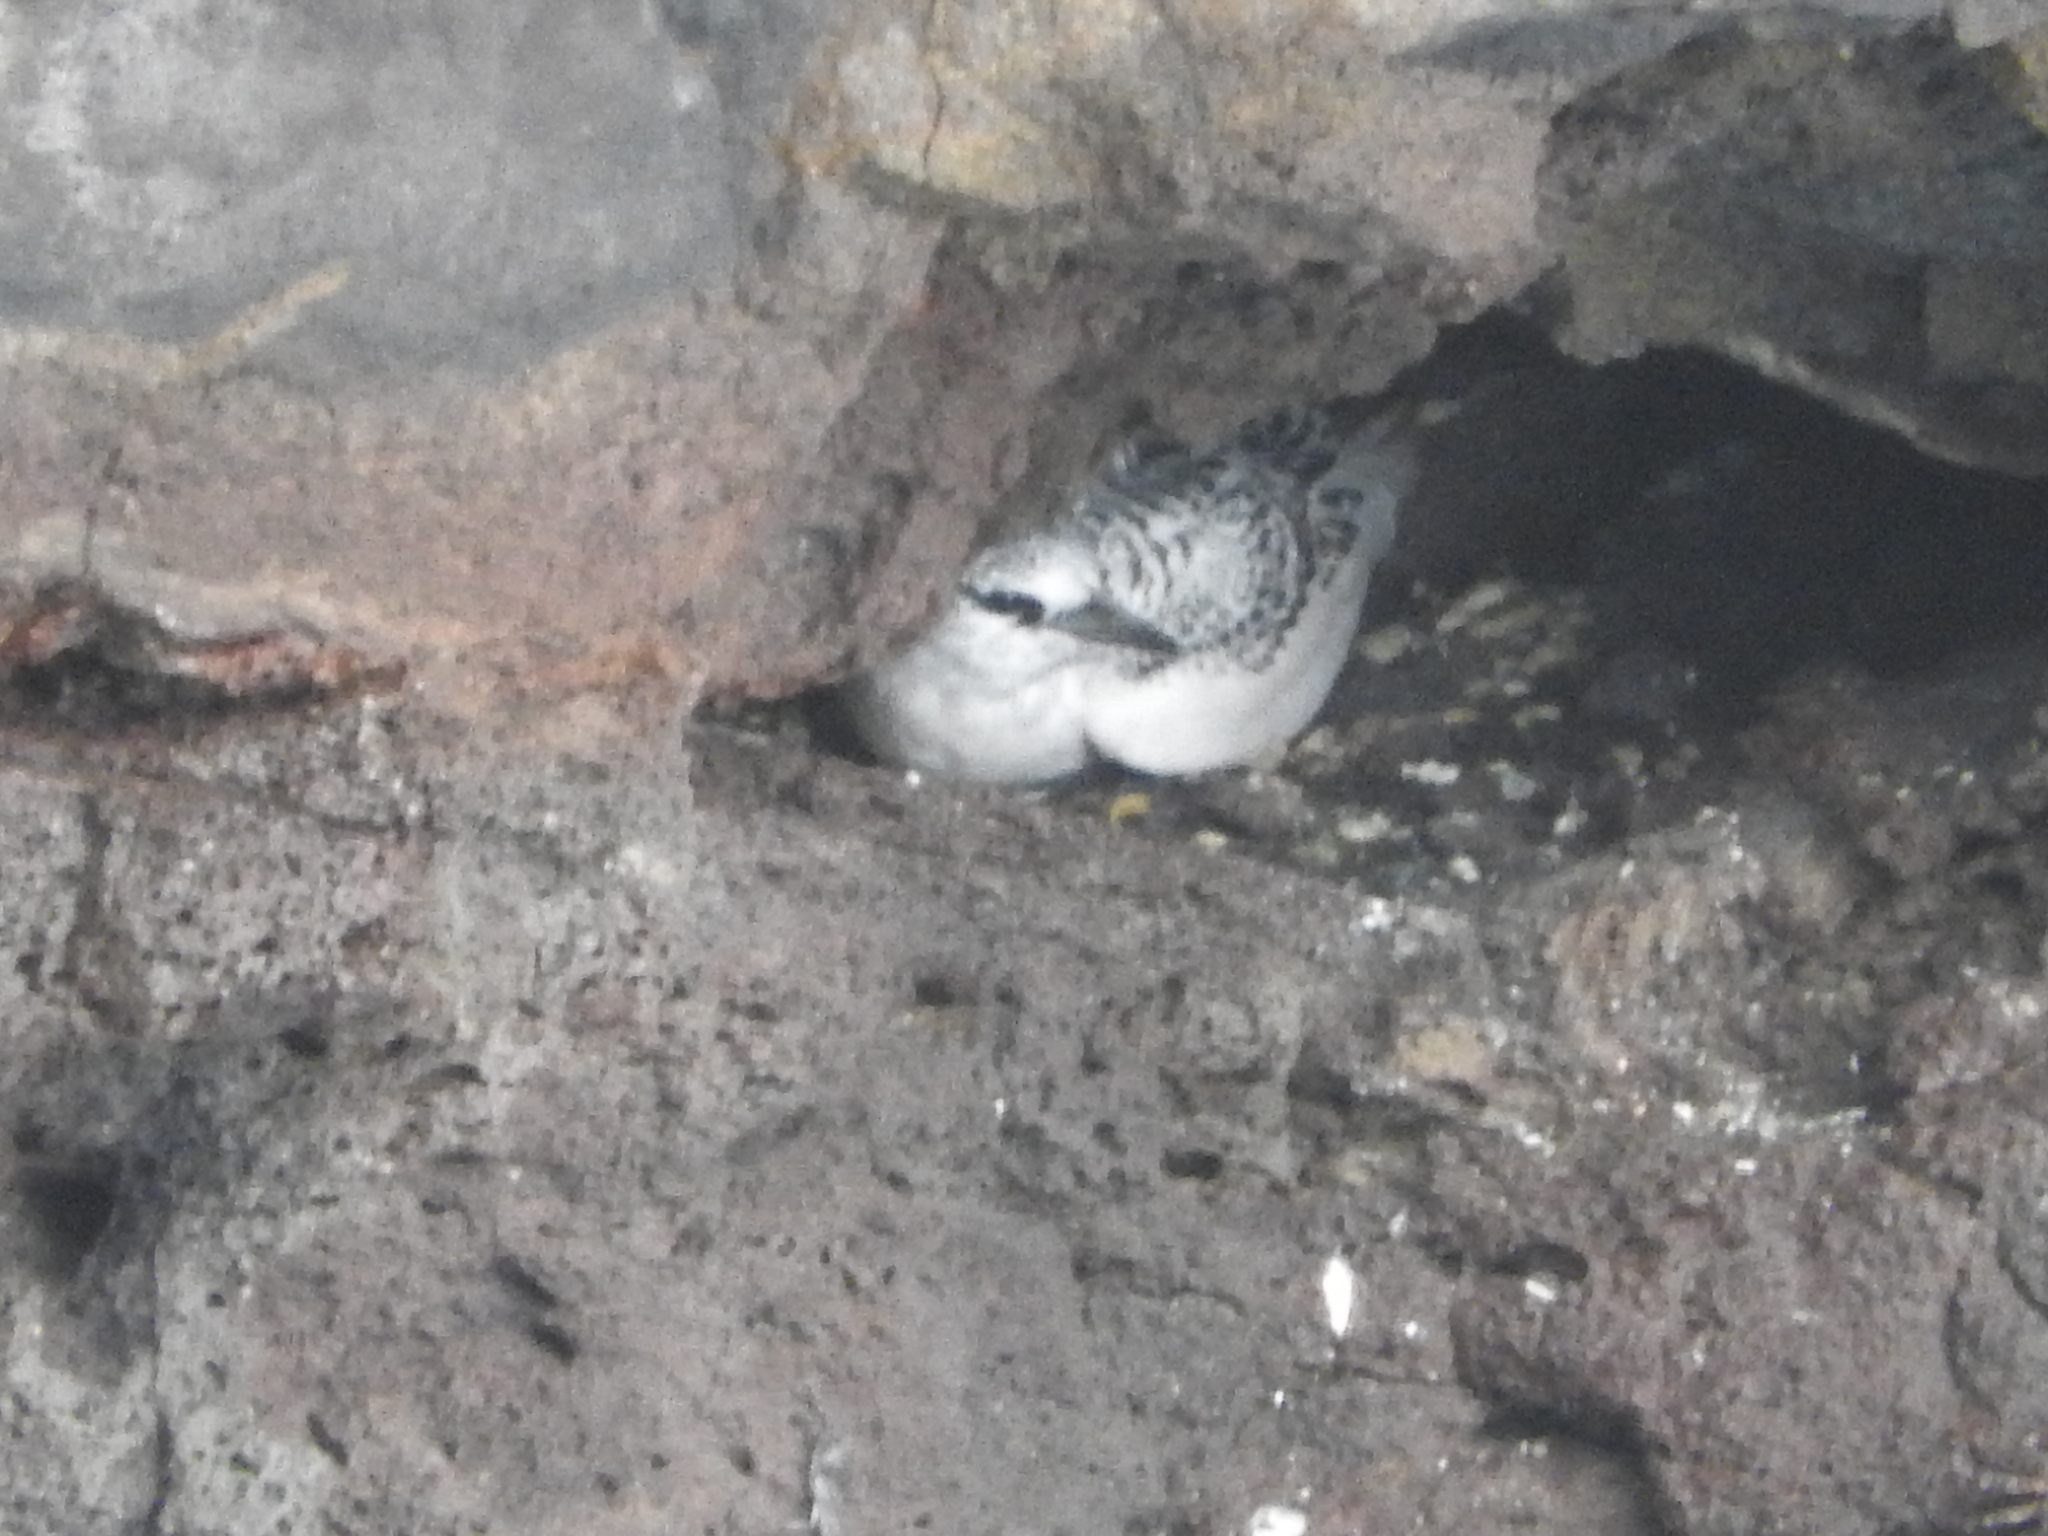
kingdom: Animalia
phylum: Chordata
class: Aves
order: Phaethontiformes
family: Phaethontidae
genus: Phaethon
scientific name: Phaethon lepturus
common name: White-tailed tropicbird
